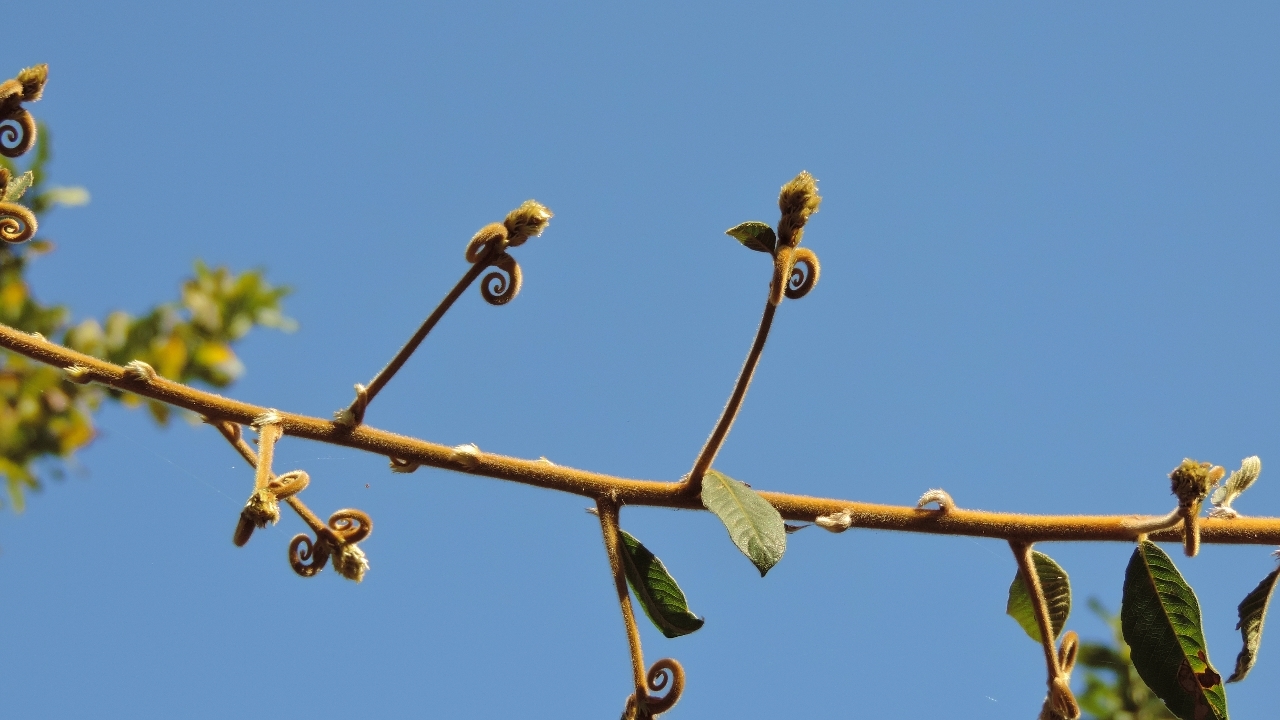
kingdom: Plantae
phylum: Tracheophyta
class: Magnoliopsida
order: Malpighiales
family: Linaceae
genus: Hugonia
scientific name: Hugonia orientalis
